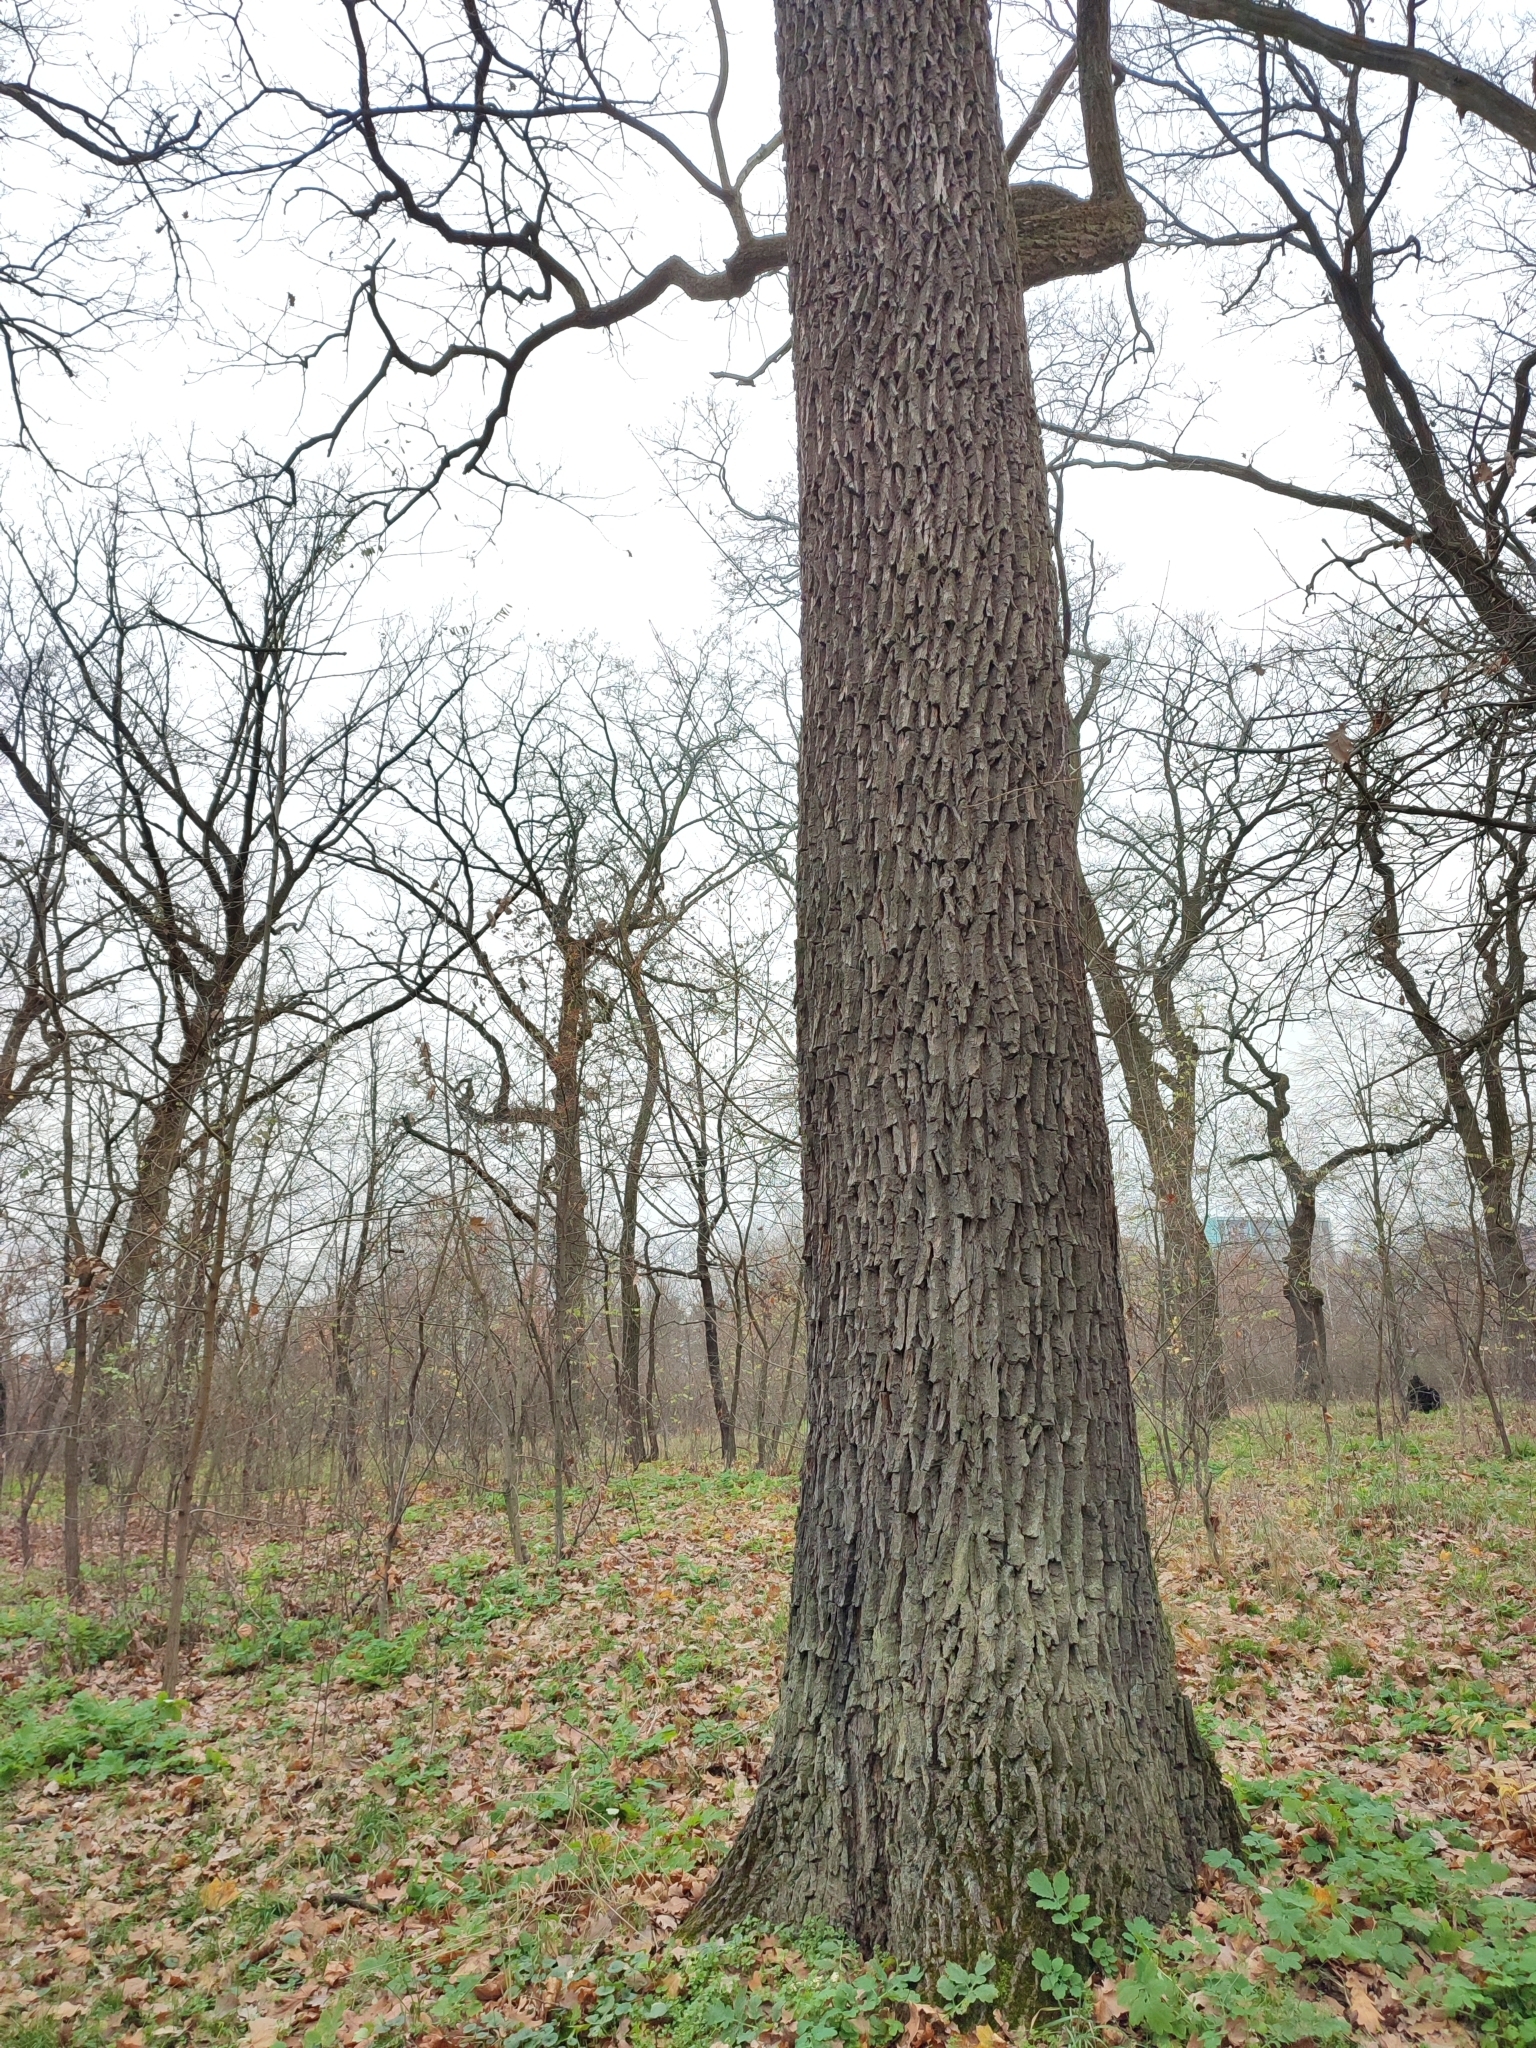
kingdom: Plantae
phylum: Tracheophyta
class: Magnoliopsida
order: Fagales
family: Fagaceae
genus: Quercus
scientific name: Quercus robur
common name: Pedunculate oak
